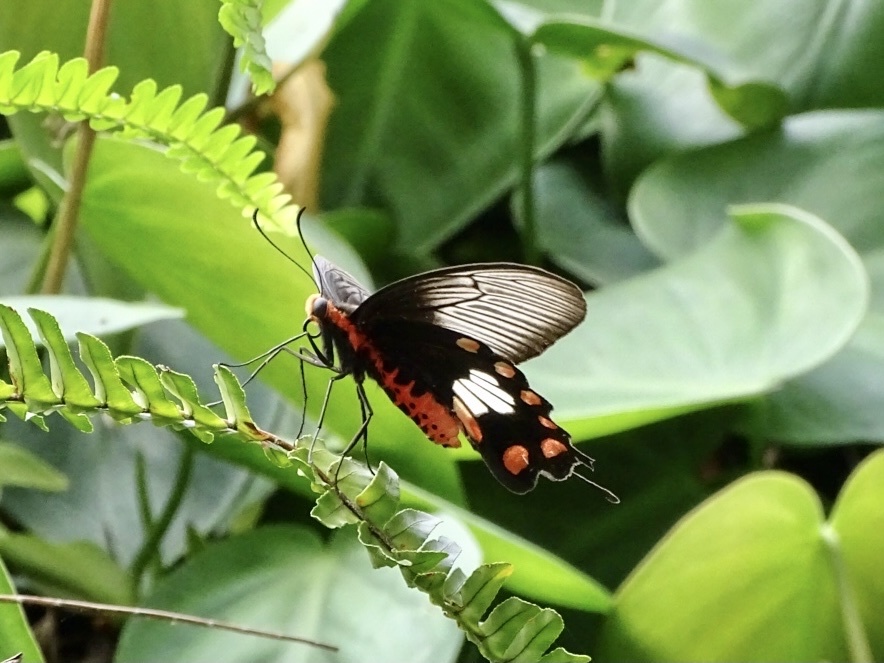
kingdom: Animalia
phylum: Arthropoda
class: Insecta
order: Lepidoptera
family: Papilionidae
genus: Pachliopta
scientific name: Pachliopta aristolochiae
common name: Common rose
